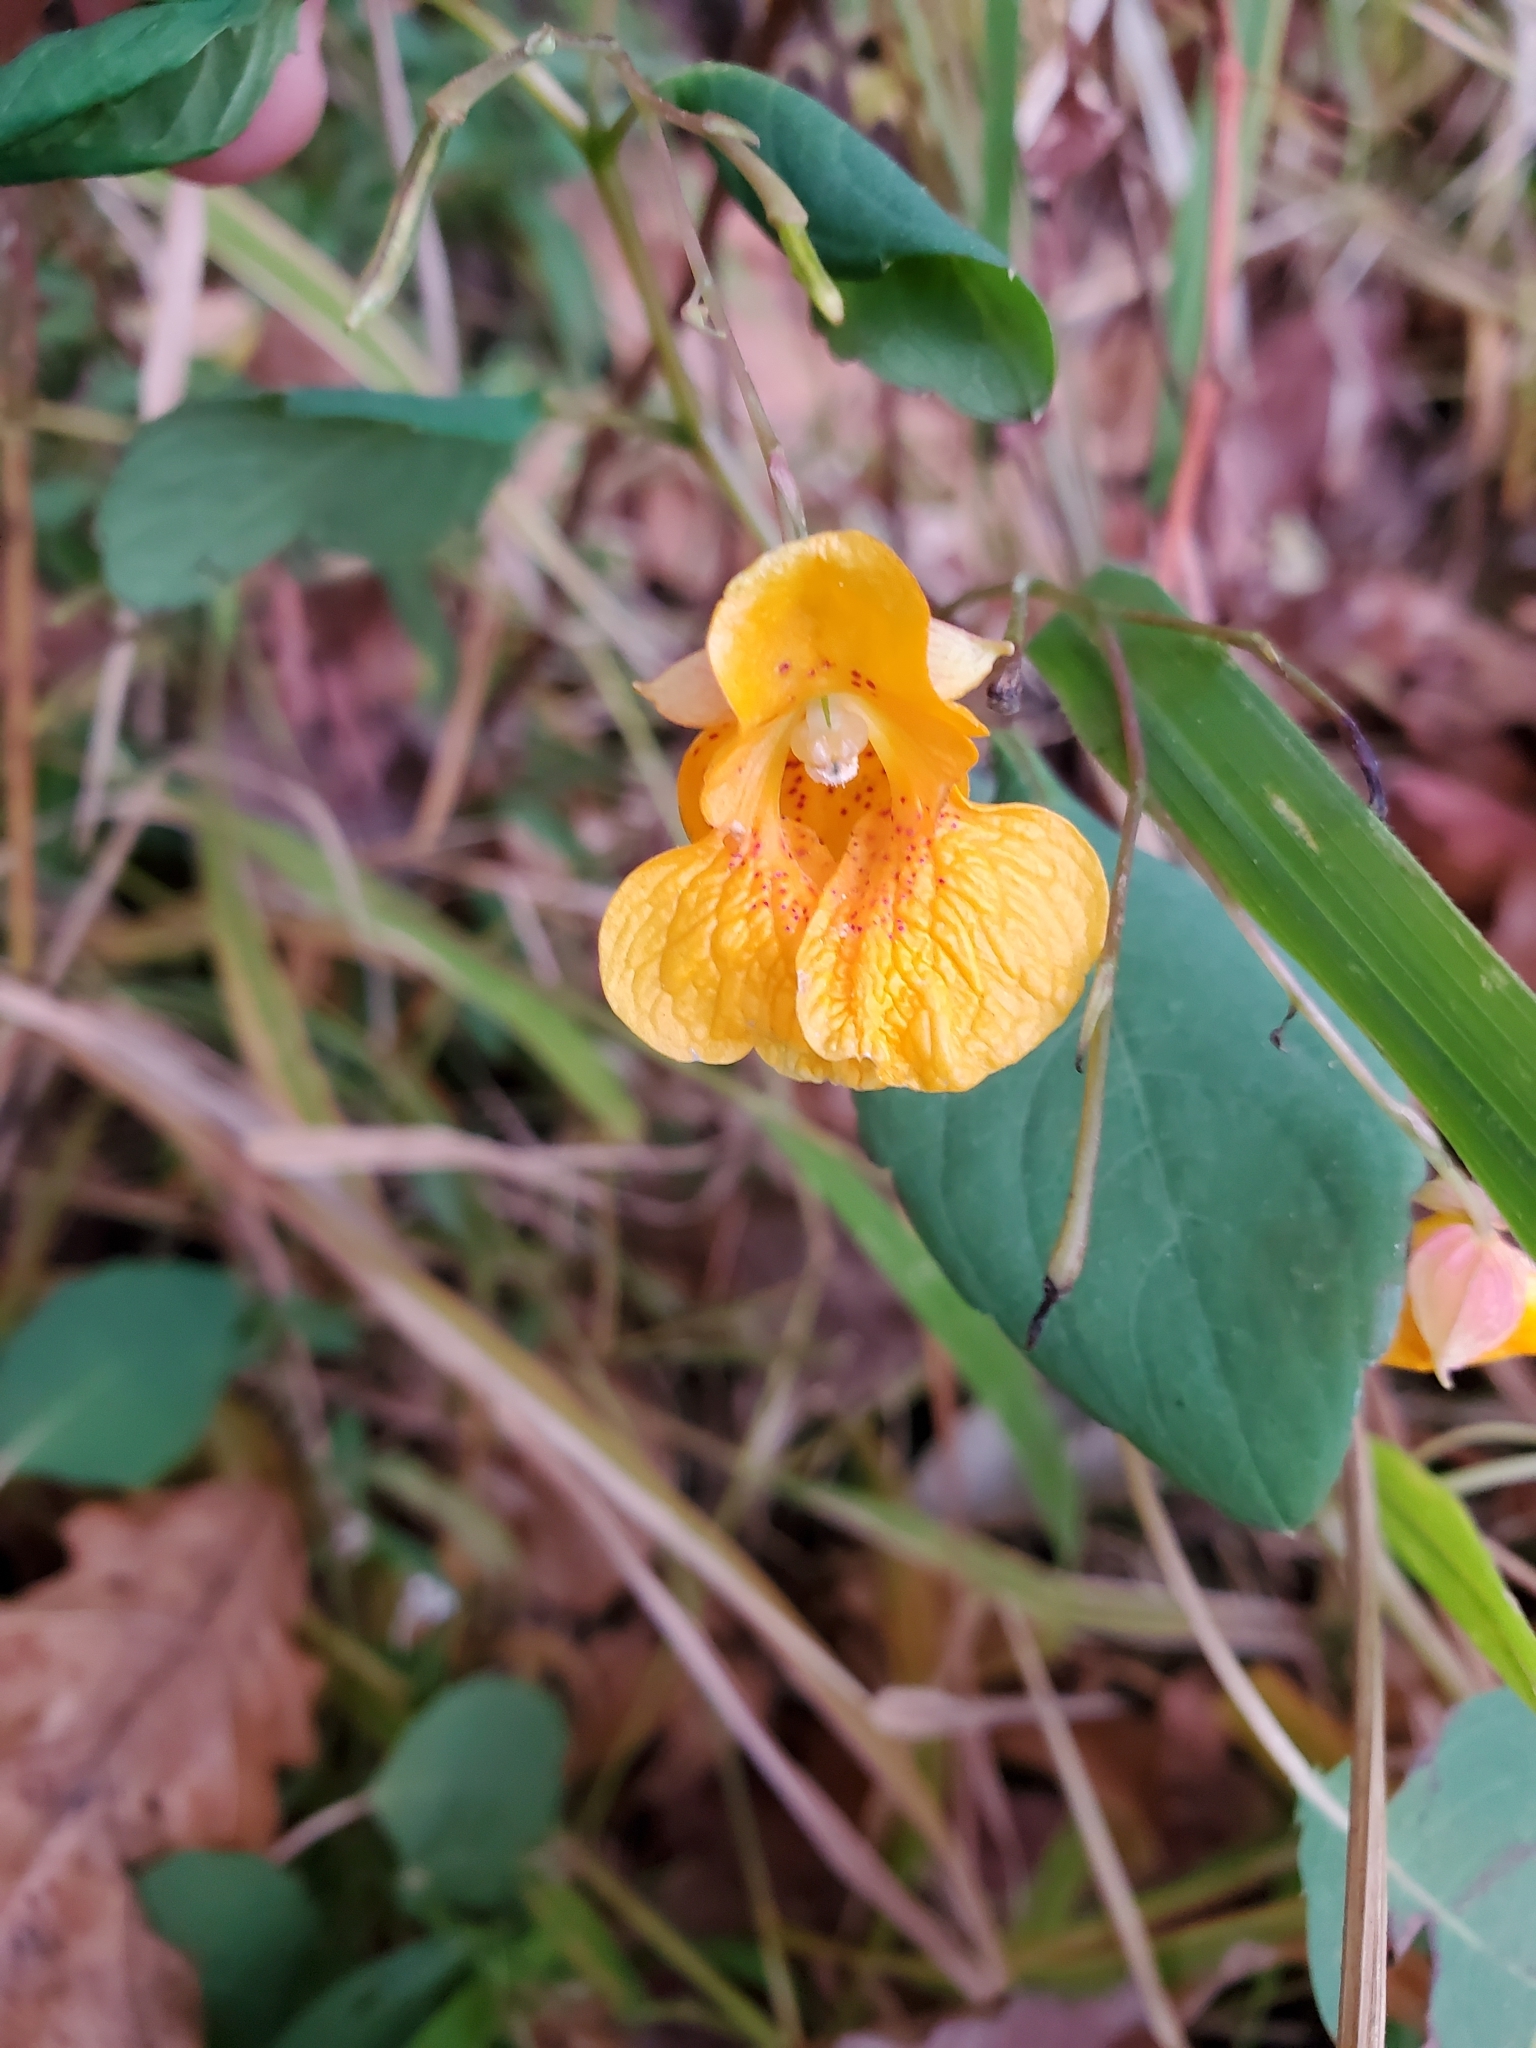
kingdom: Plantae
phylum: Tracheophyta
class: Magnoliopsida
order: Ericales
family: Balsaminaceae
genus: Impatiens
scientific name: Impatiens capensis
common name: Orange balsam
